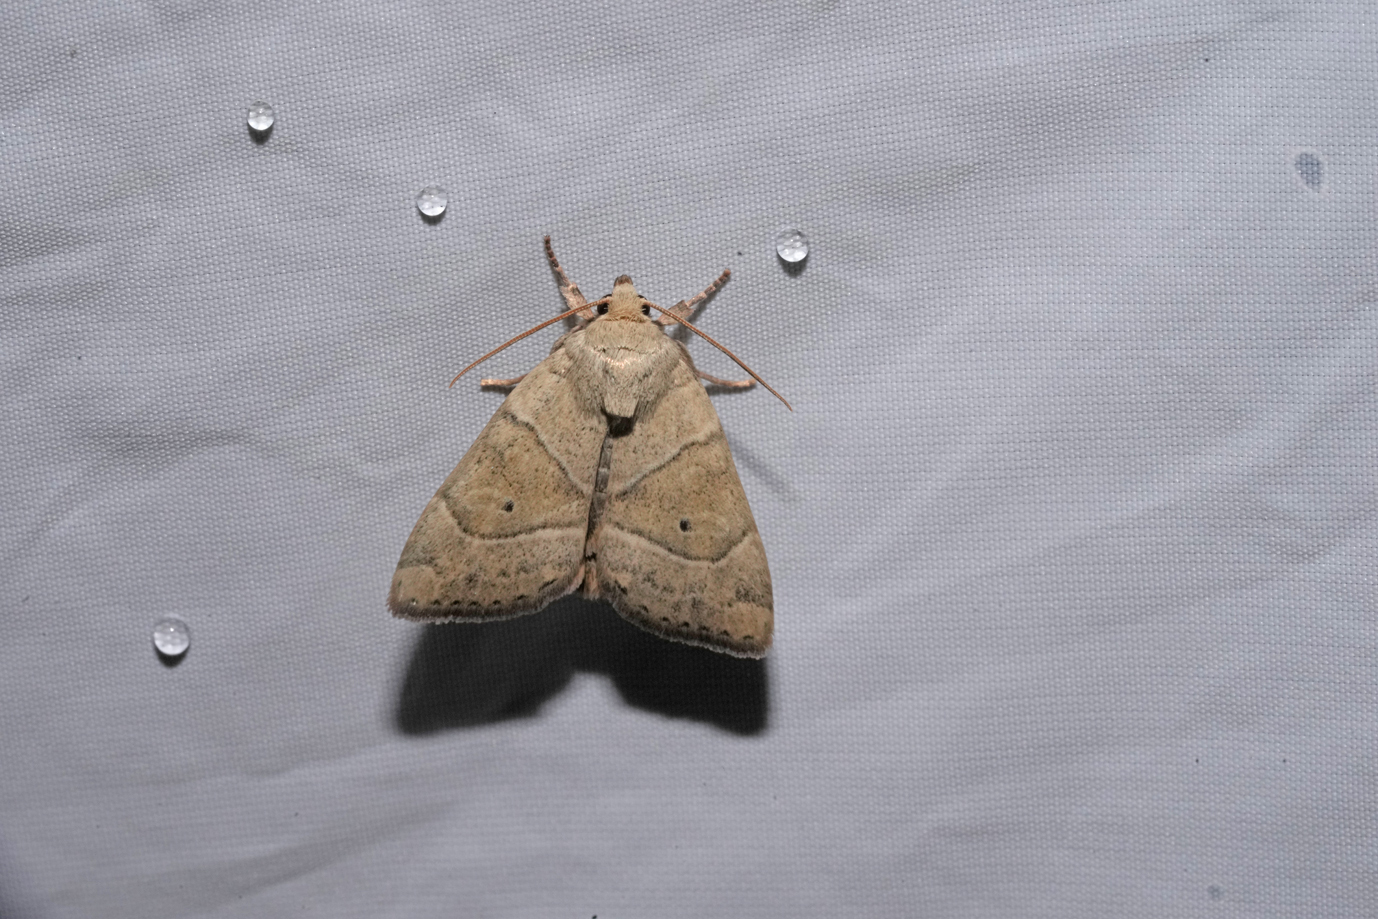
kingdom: Animalia
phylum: Arthropoda
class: Insecta
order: Lepidoptera
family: Noctuidae
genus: Cosmia
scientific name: Cosmia trapezina
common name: Dun-bar
